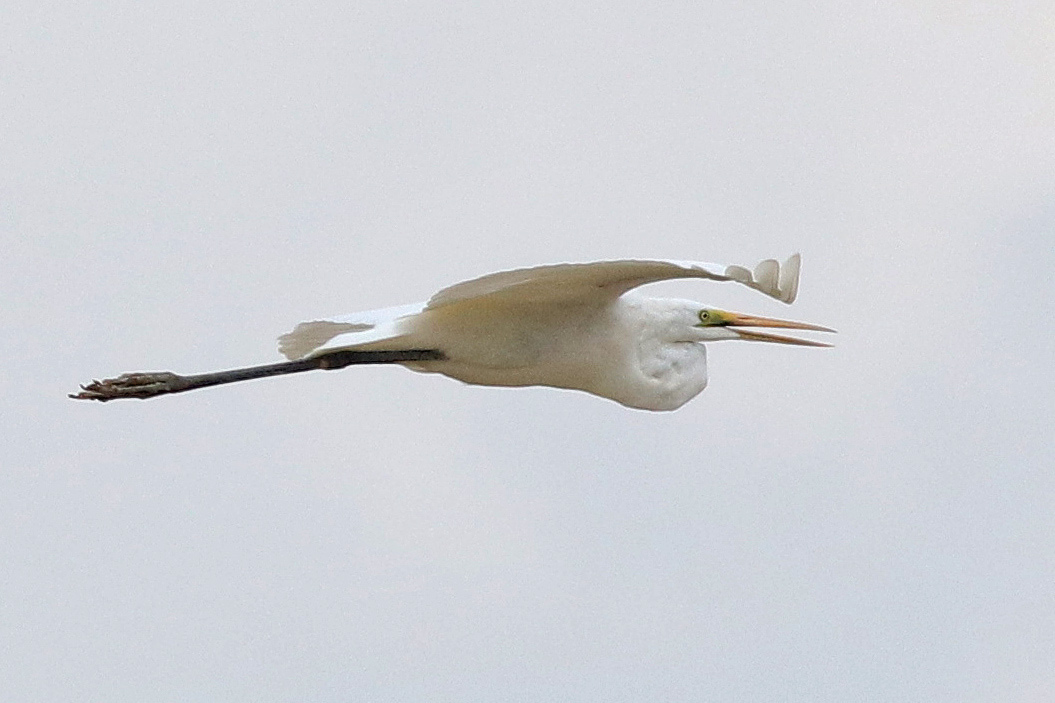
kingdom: Animalia
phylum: Chordata
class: Aves
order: Pelecaniformes
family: Ardeidae
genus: Ardea
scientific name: Ardea alba
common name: Great egret
